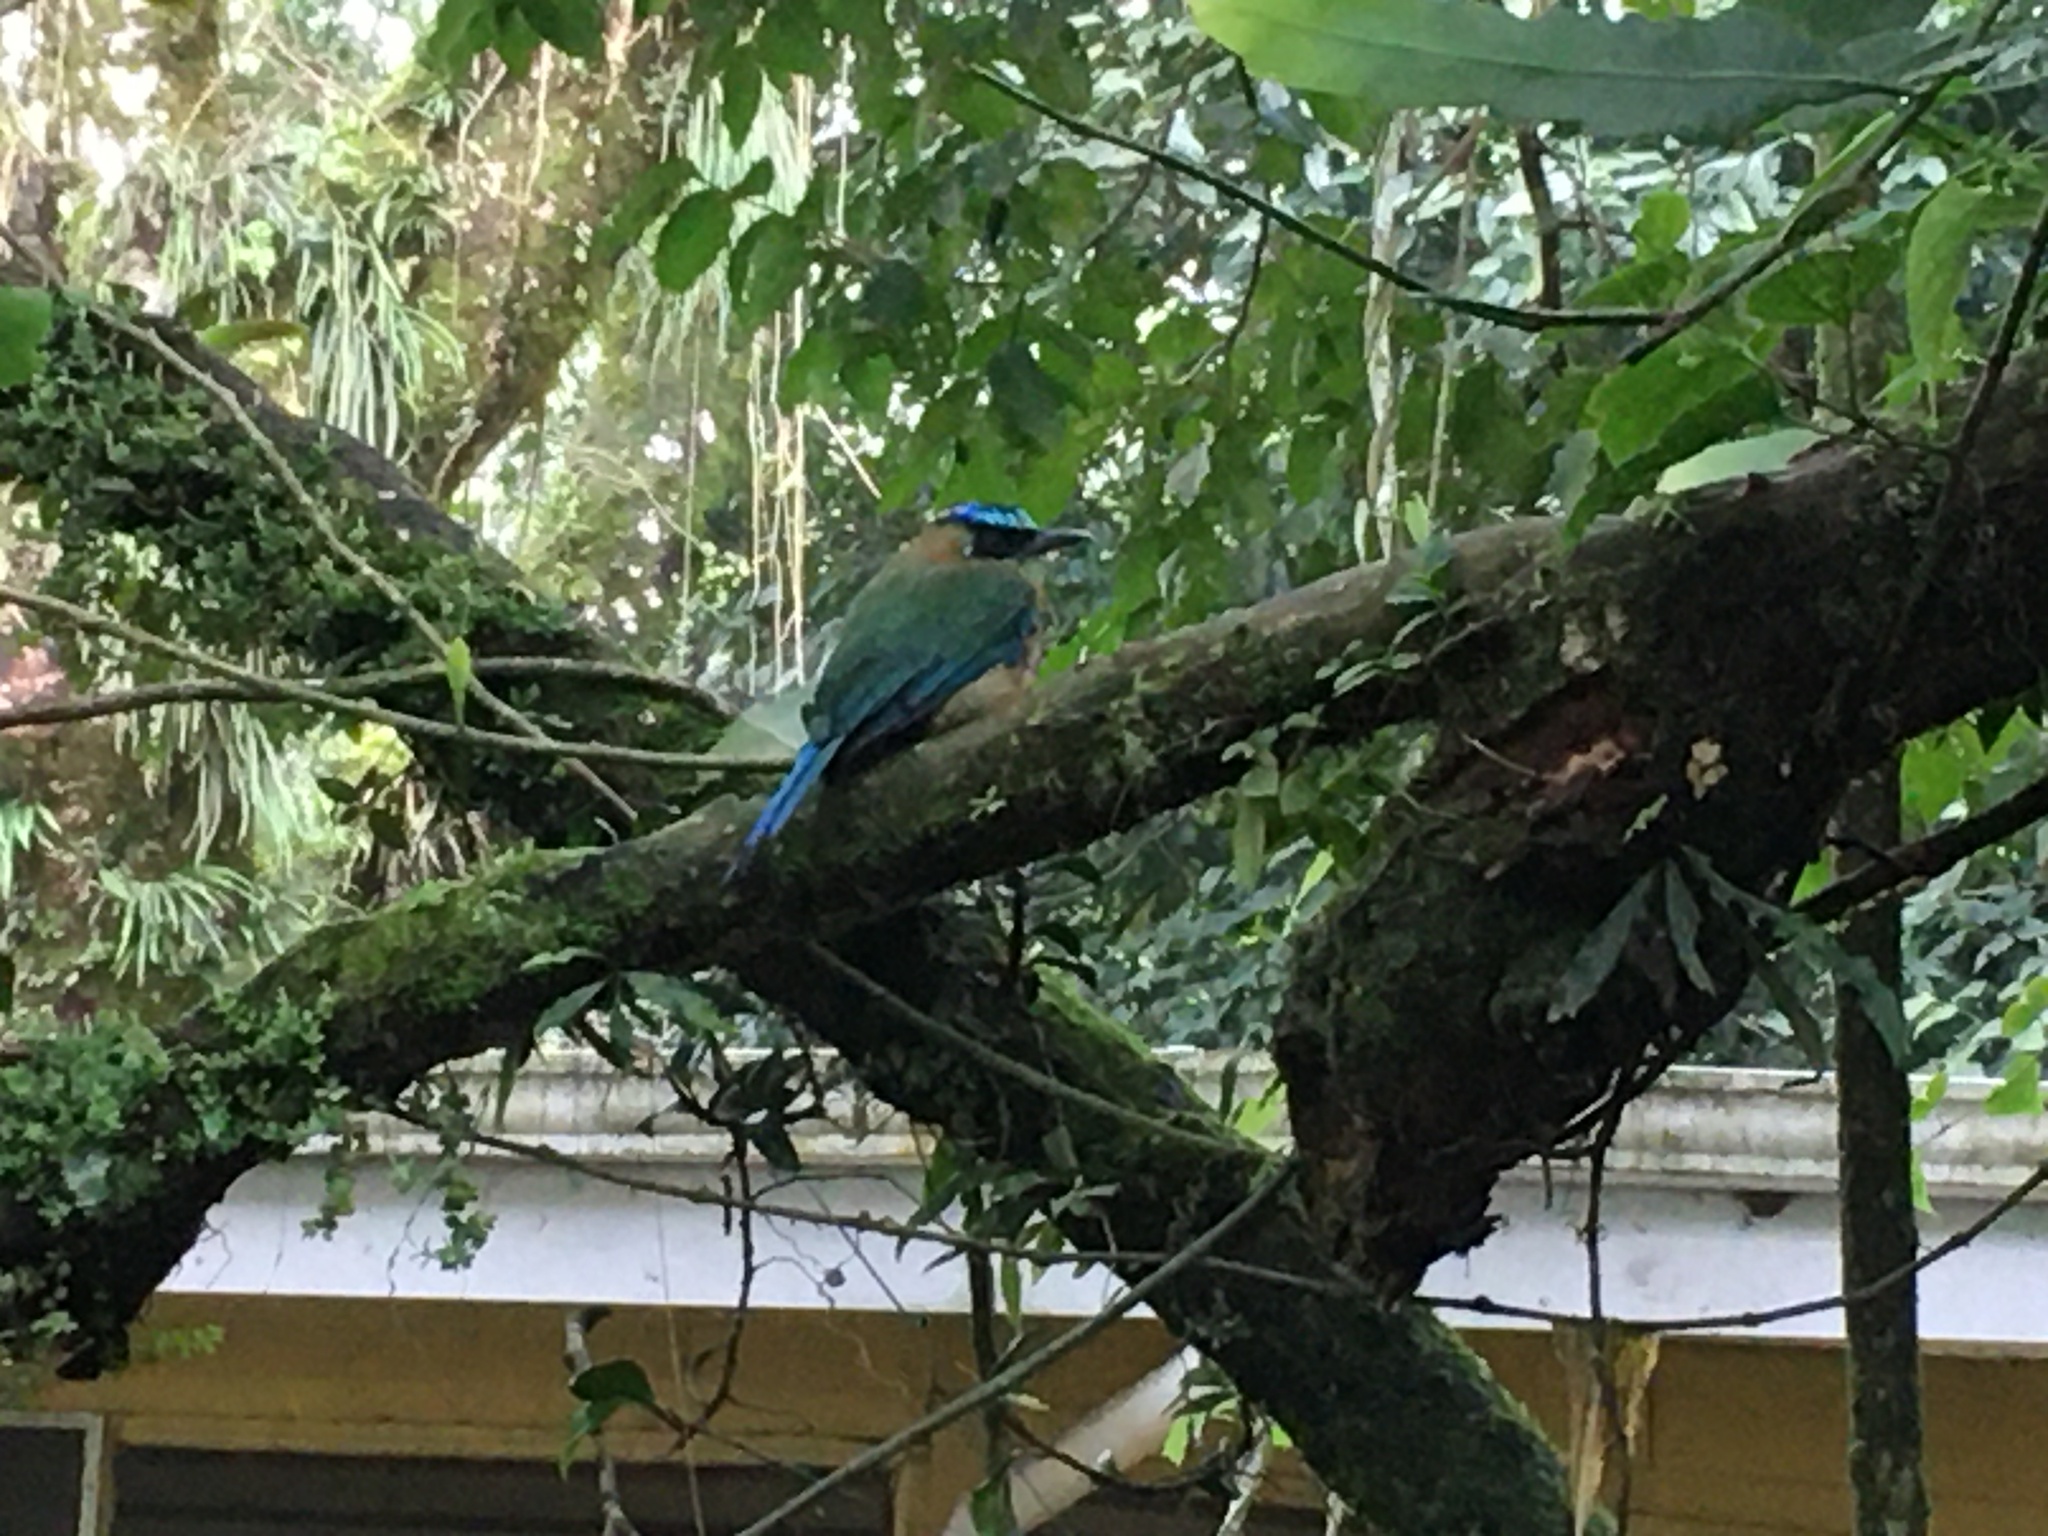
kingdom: Animalia
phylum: Chordata
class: Aves
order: Coraciiformes
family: Momotidae
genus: Momotus
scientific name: Momotus lessonii
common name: Lesson's motmot
